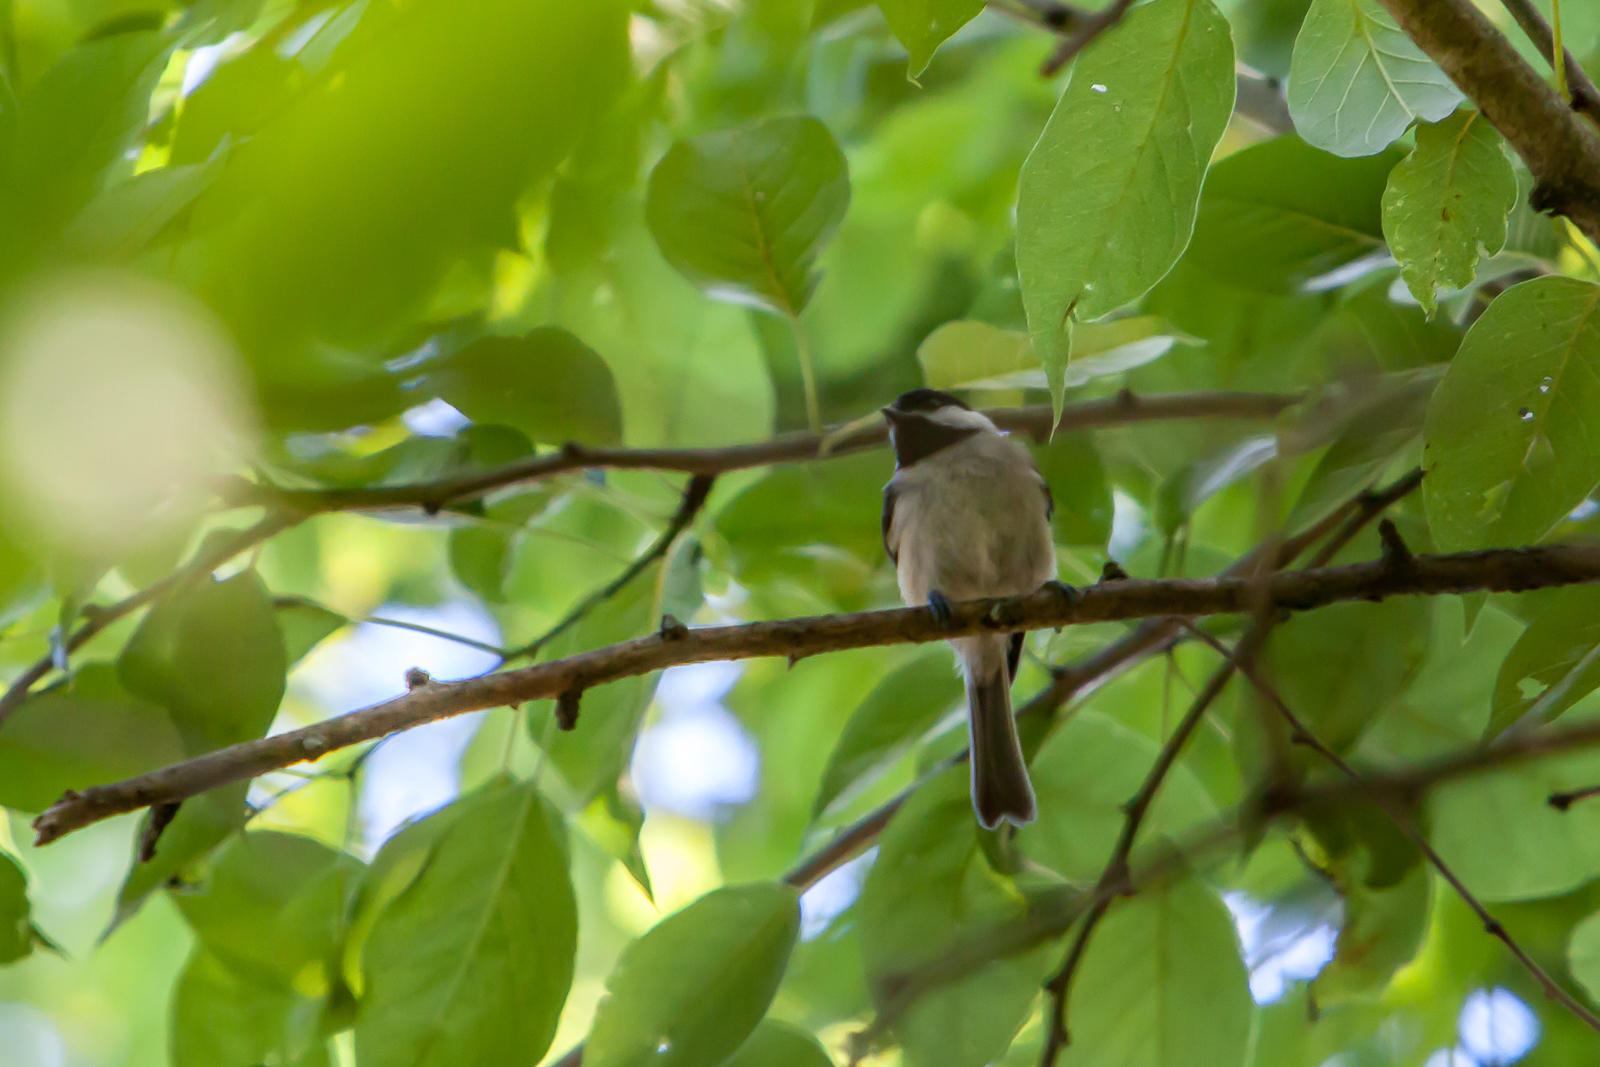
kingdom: Animalia
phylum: Chordata
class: Aves
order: Passeriformes
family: Paridae
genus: Poecile
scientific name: Poecile carolinensis
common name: Carolina chickadee
